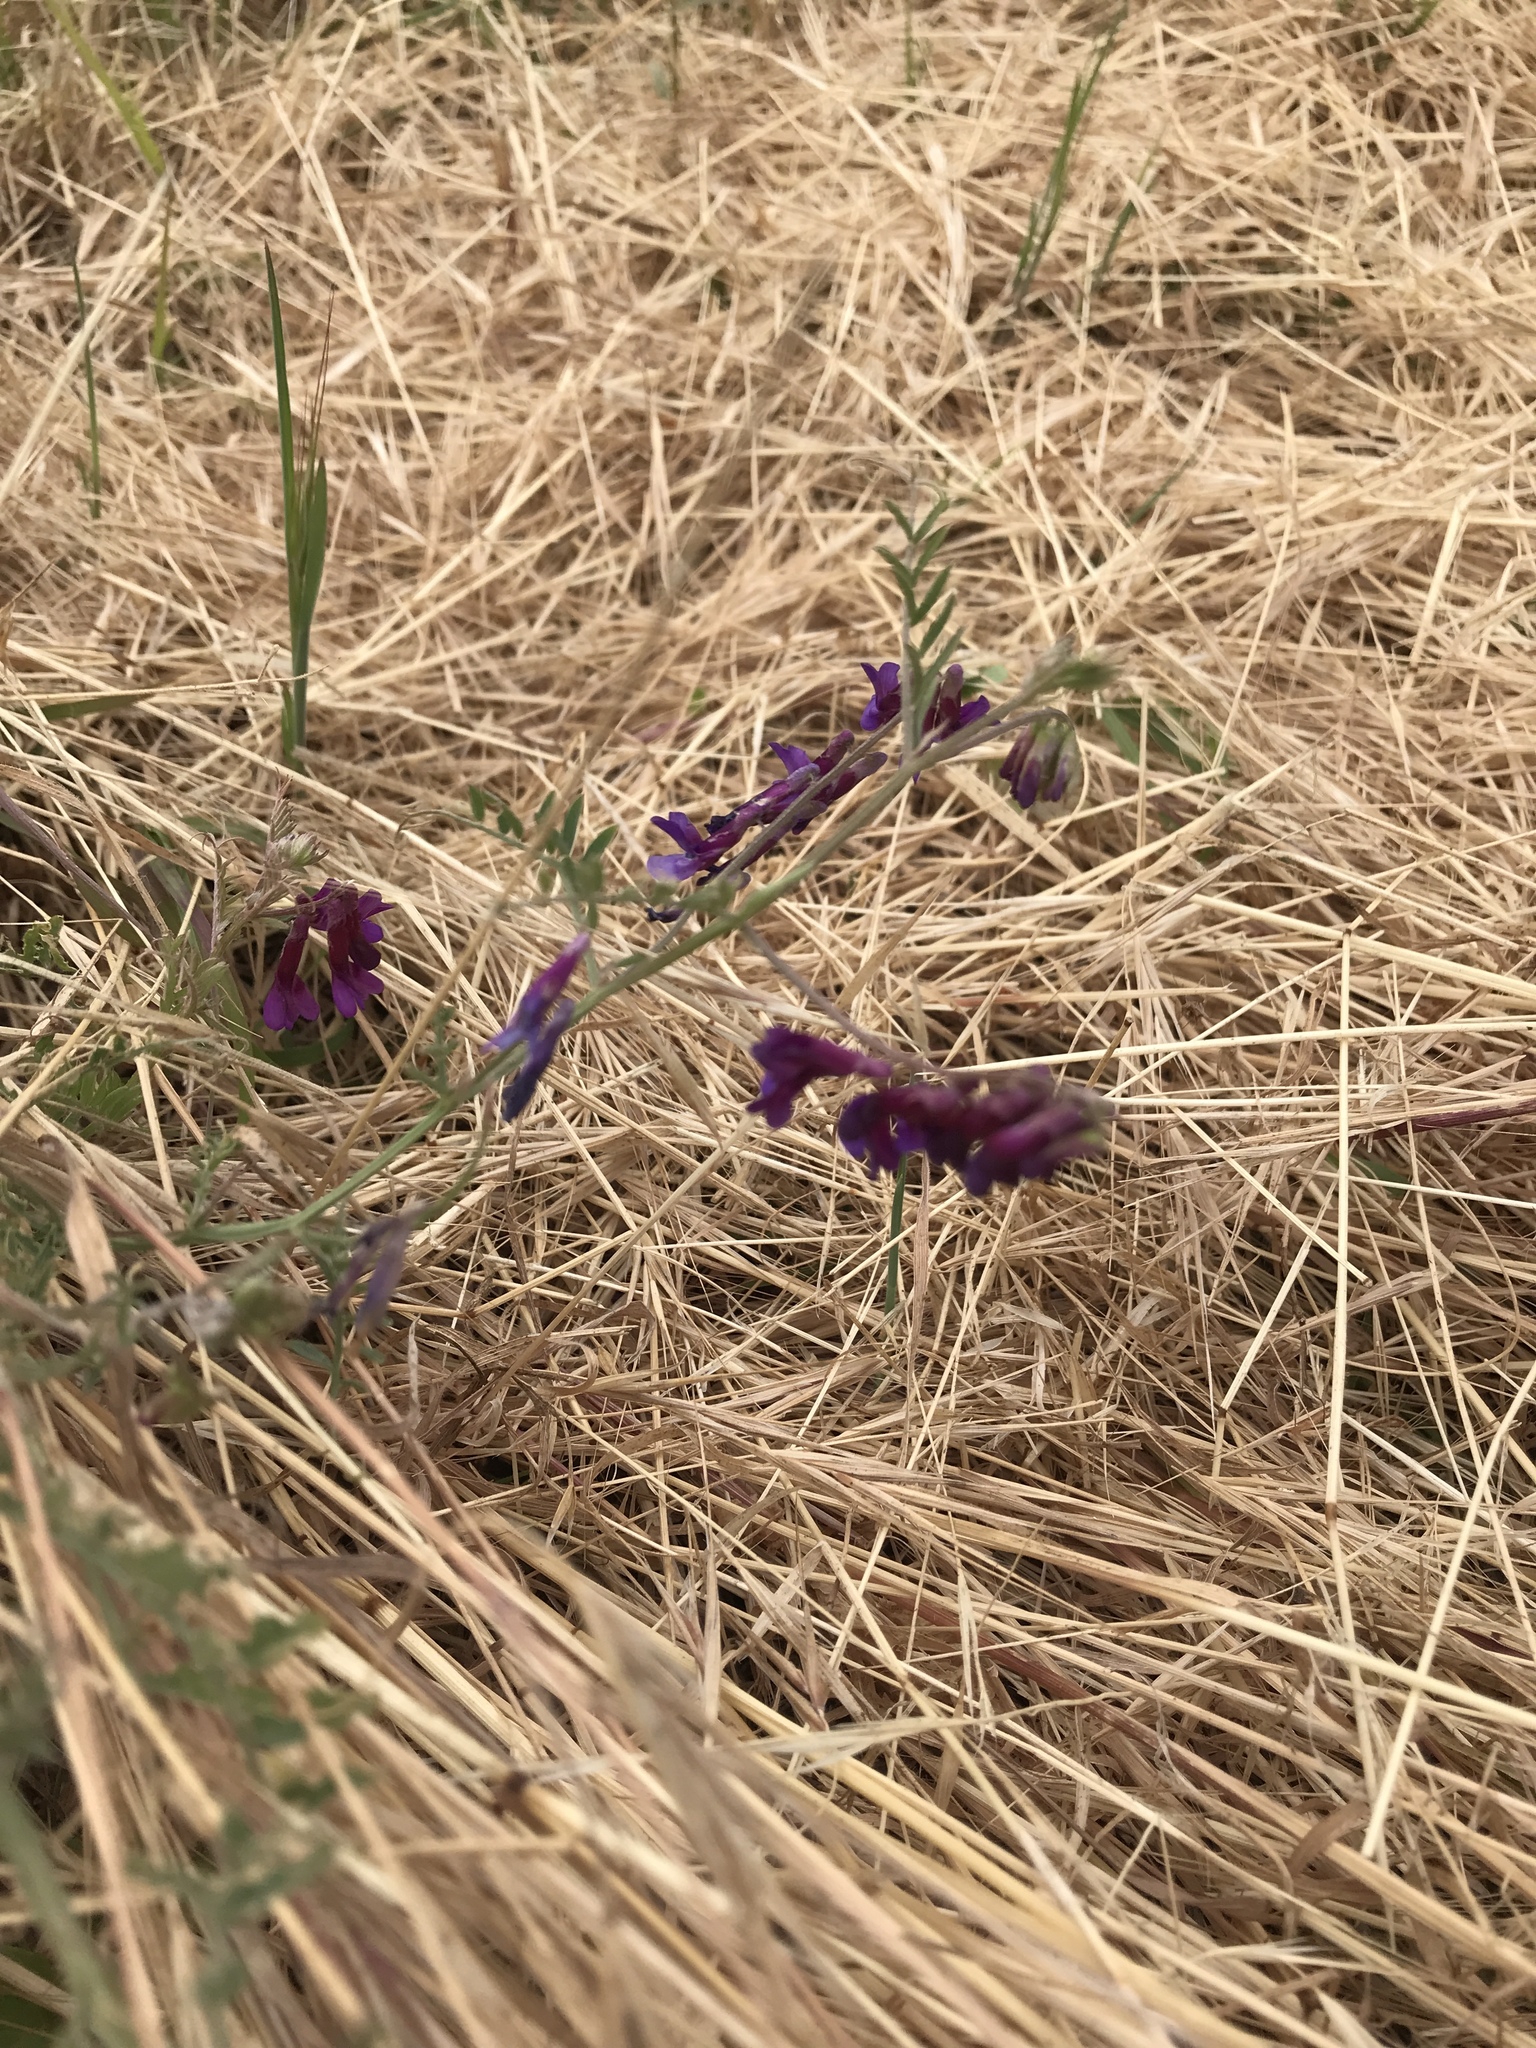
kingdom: Plantae
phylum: Tracheophyta
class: Magnoliopsida
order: Fabales
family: Fabaceae
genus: Vicia
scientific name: Vicia villosa
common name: Fodder vetch
